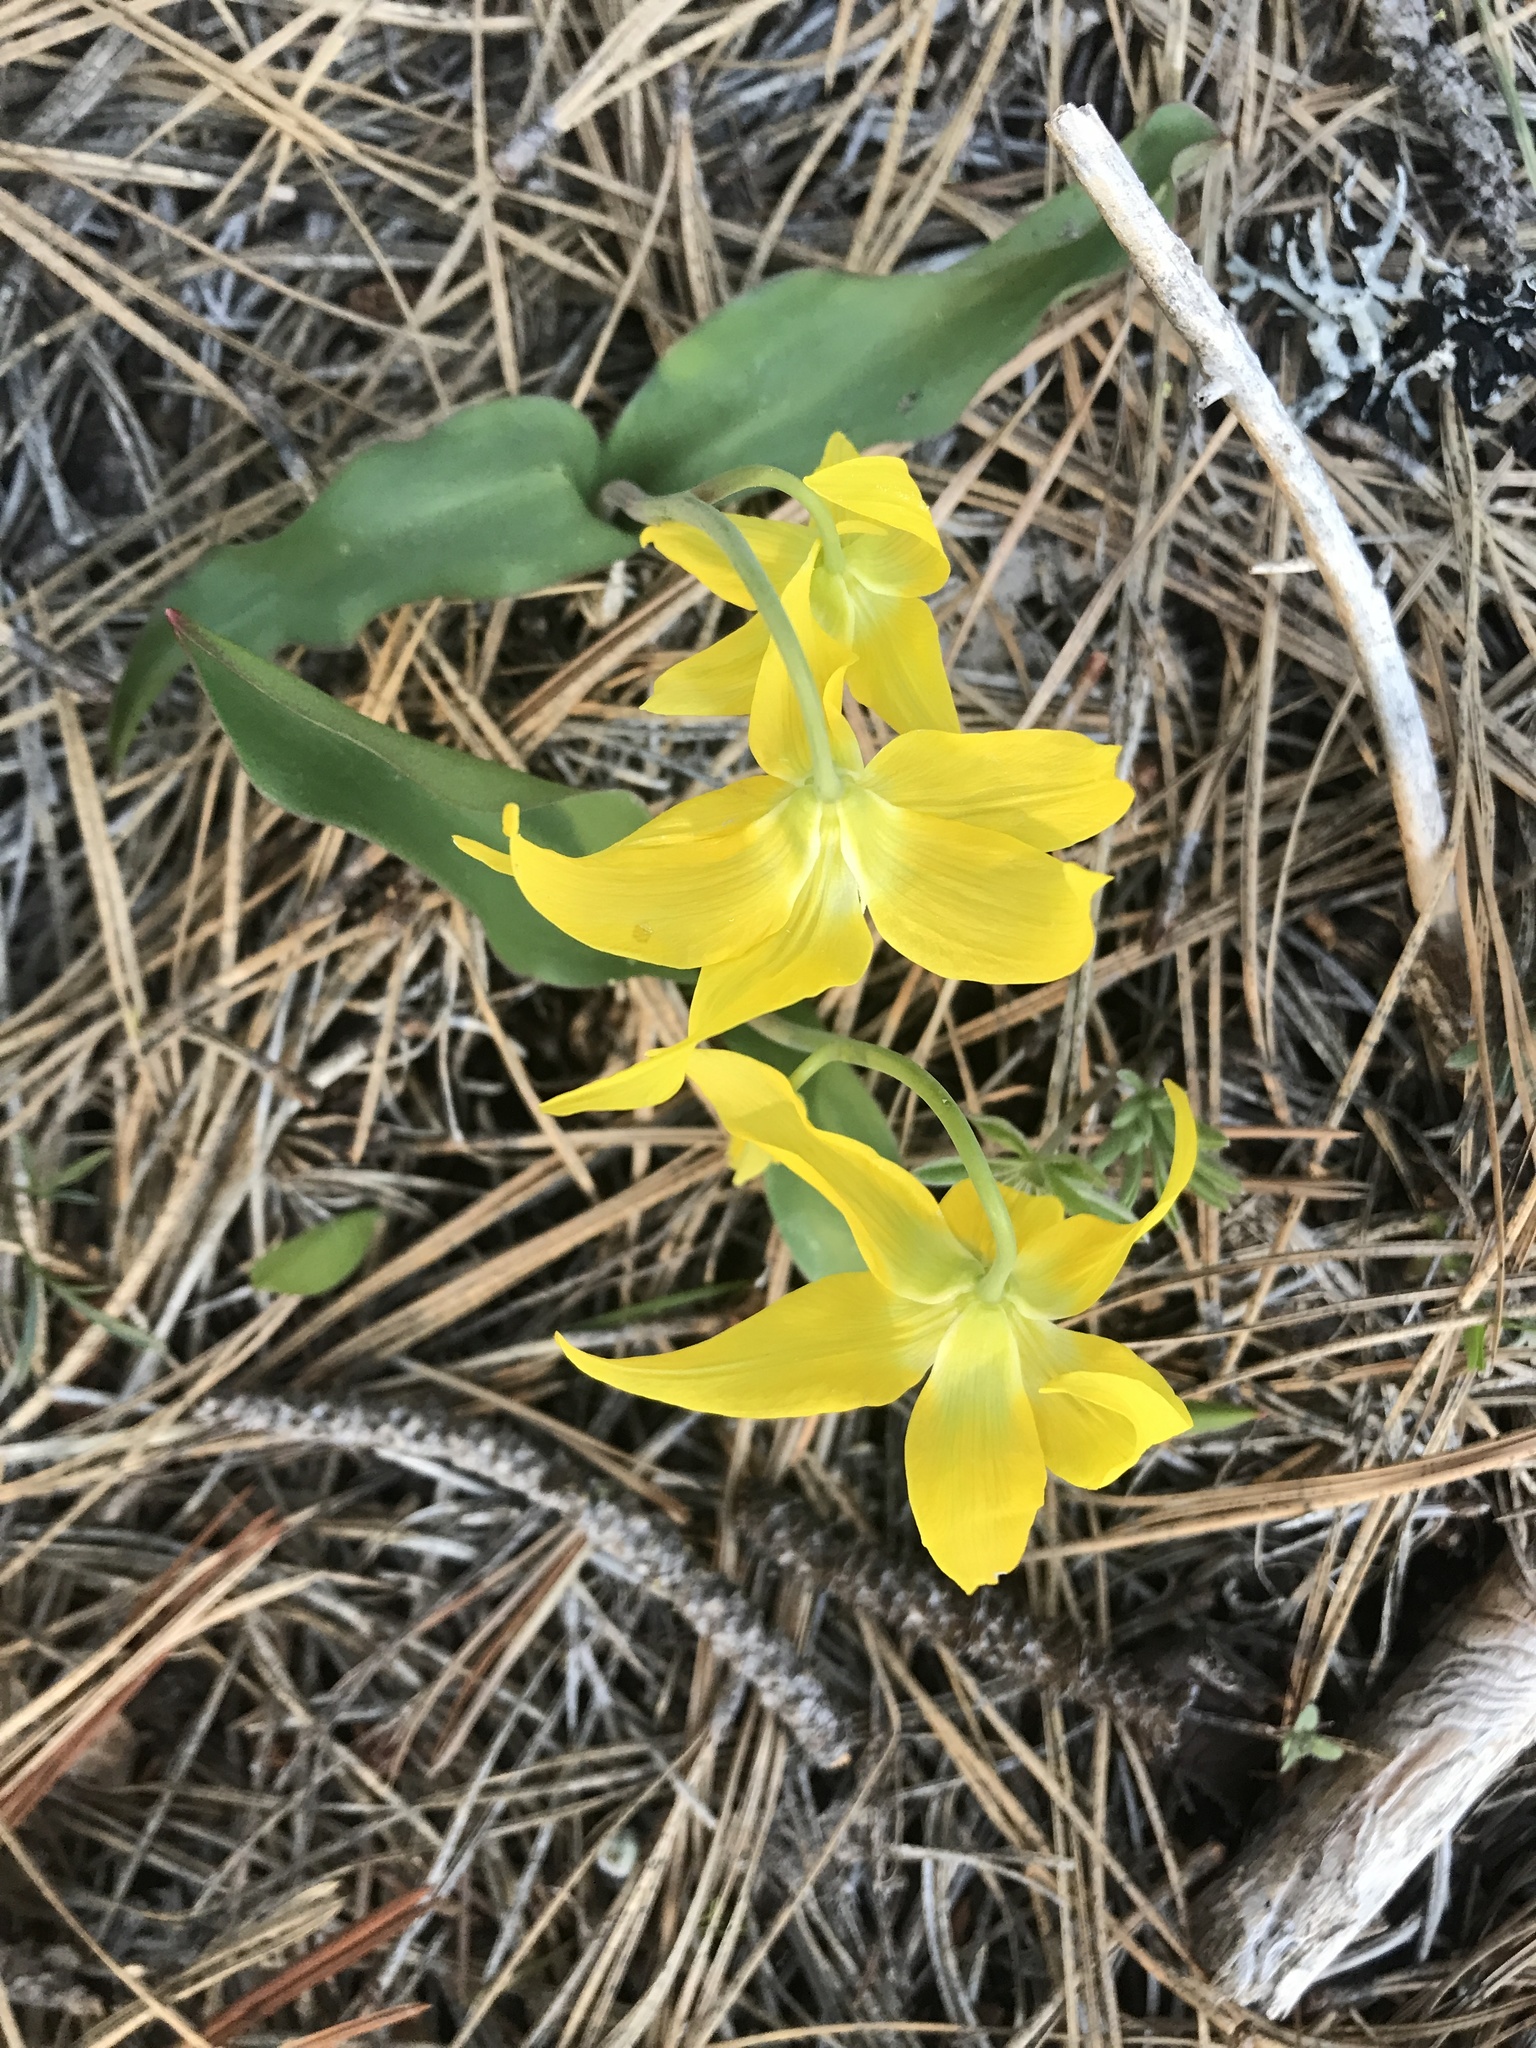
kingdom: Plantae
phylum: Tracheophyta
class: Liliopsida
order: Liliales
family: Liliaceae
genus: Erythronium
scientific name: Erythronium grandiflorum
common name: Avalanche-lily
